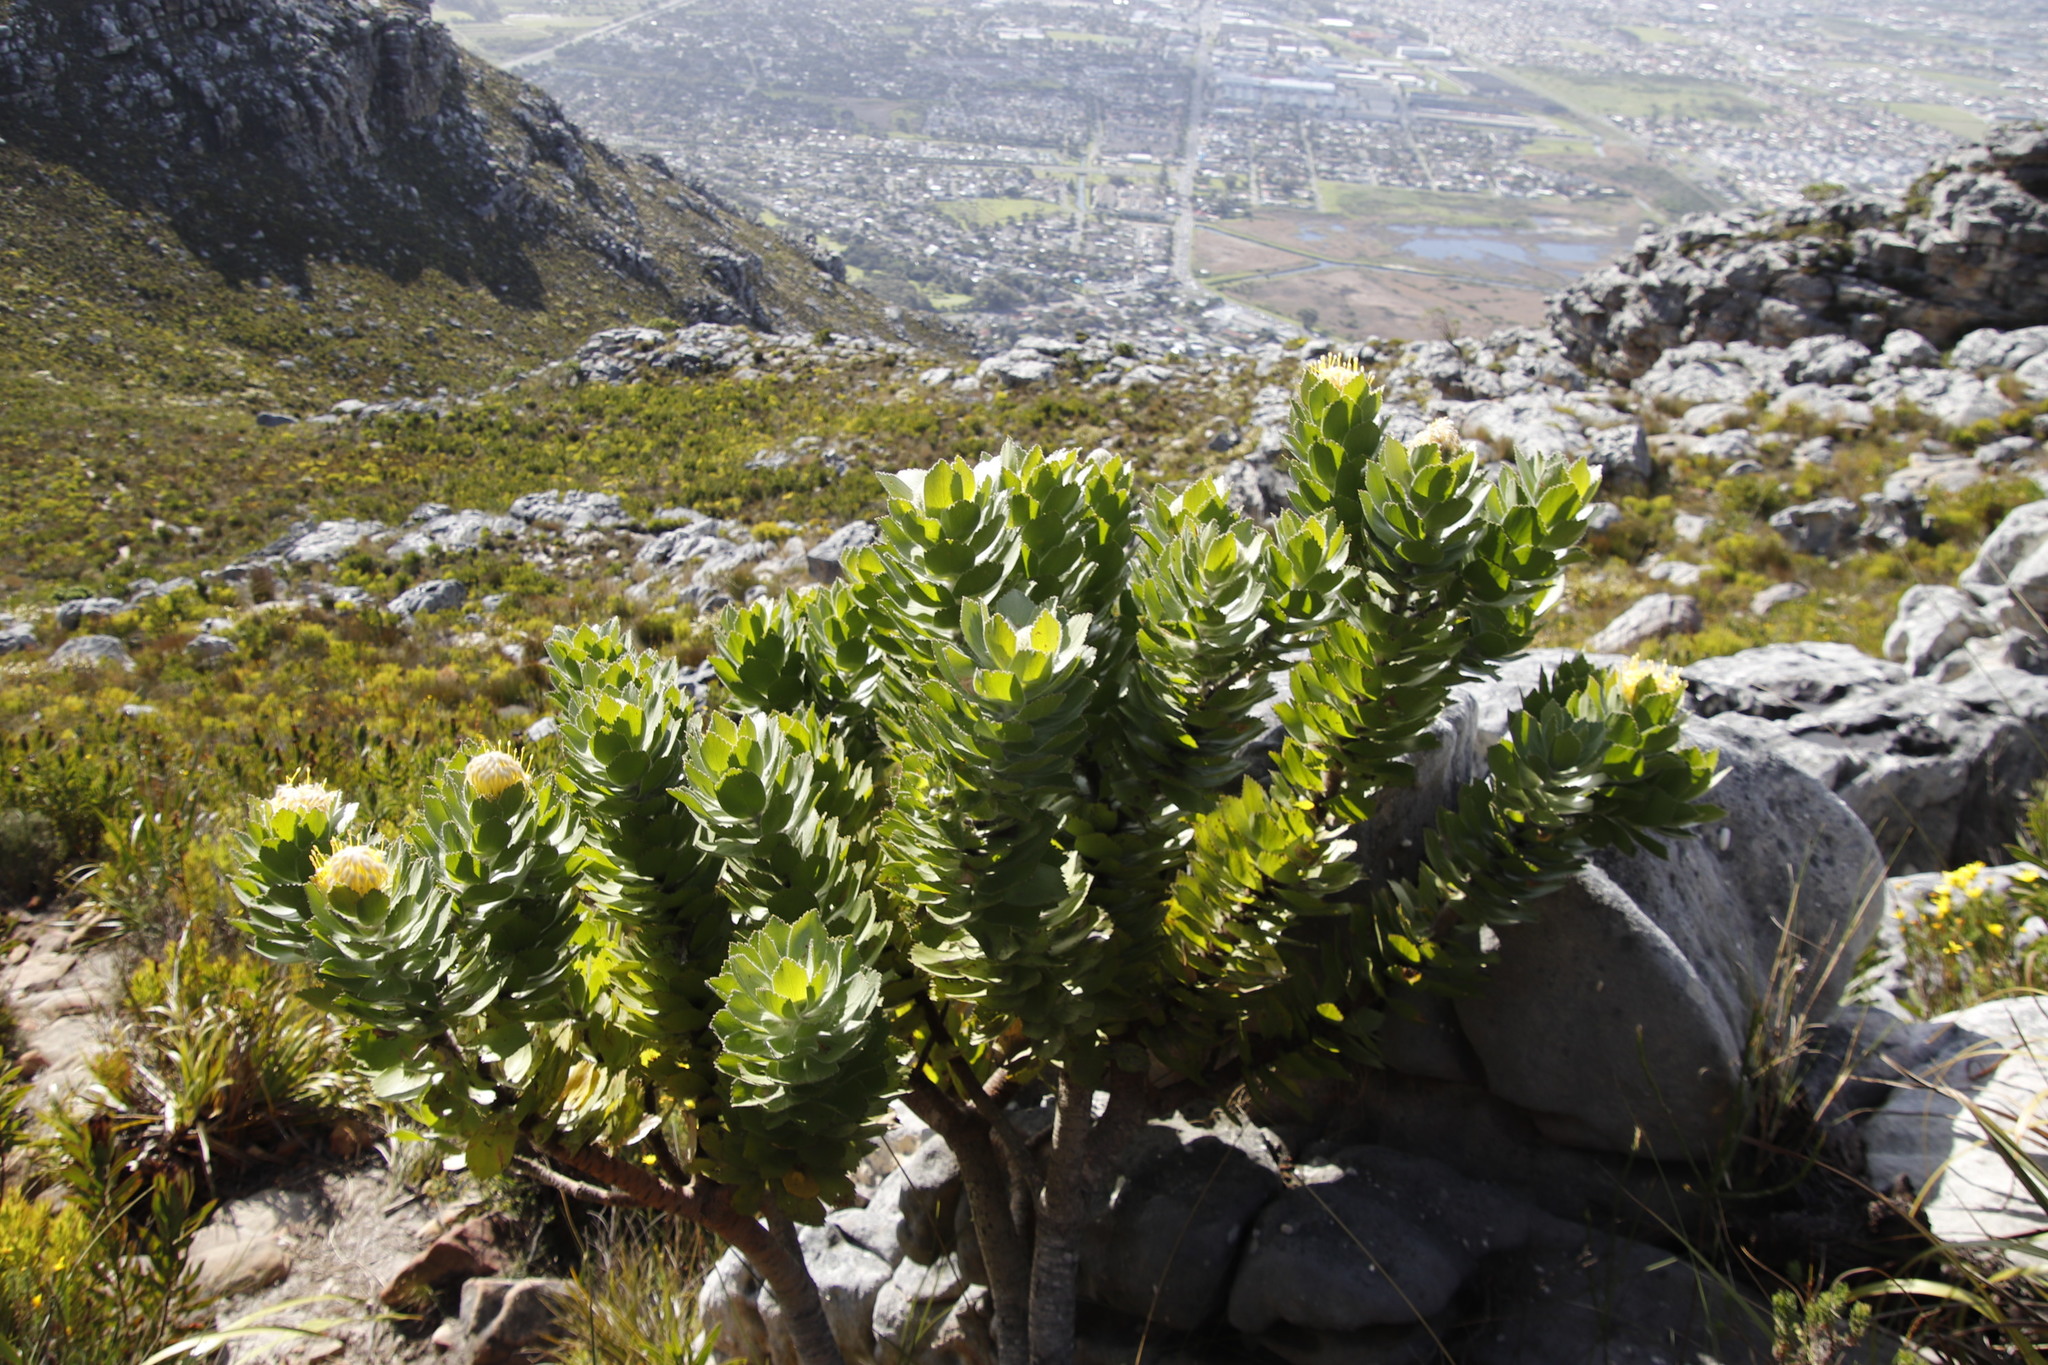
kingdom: Plantae
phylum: Tracheophyta
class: Magnoliopsida
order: Proteales
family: Proteaceae
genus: Leucospermum
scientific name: Leucospermum conocarpodendron
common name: Tree pincushion
